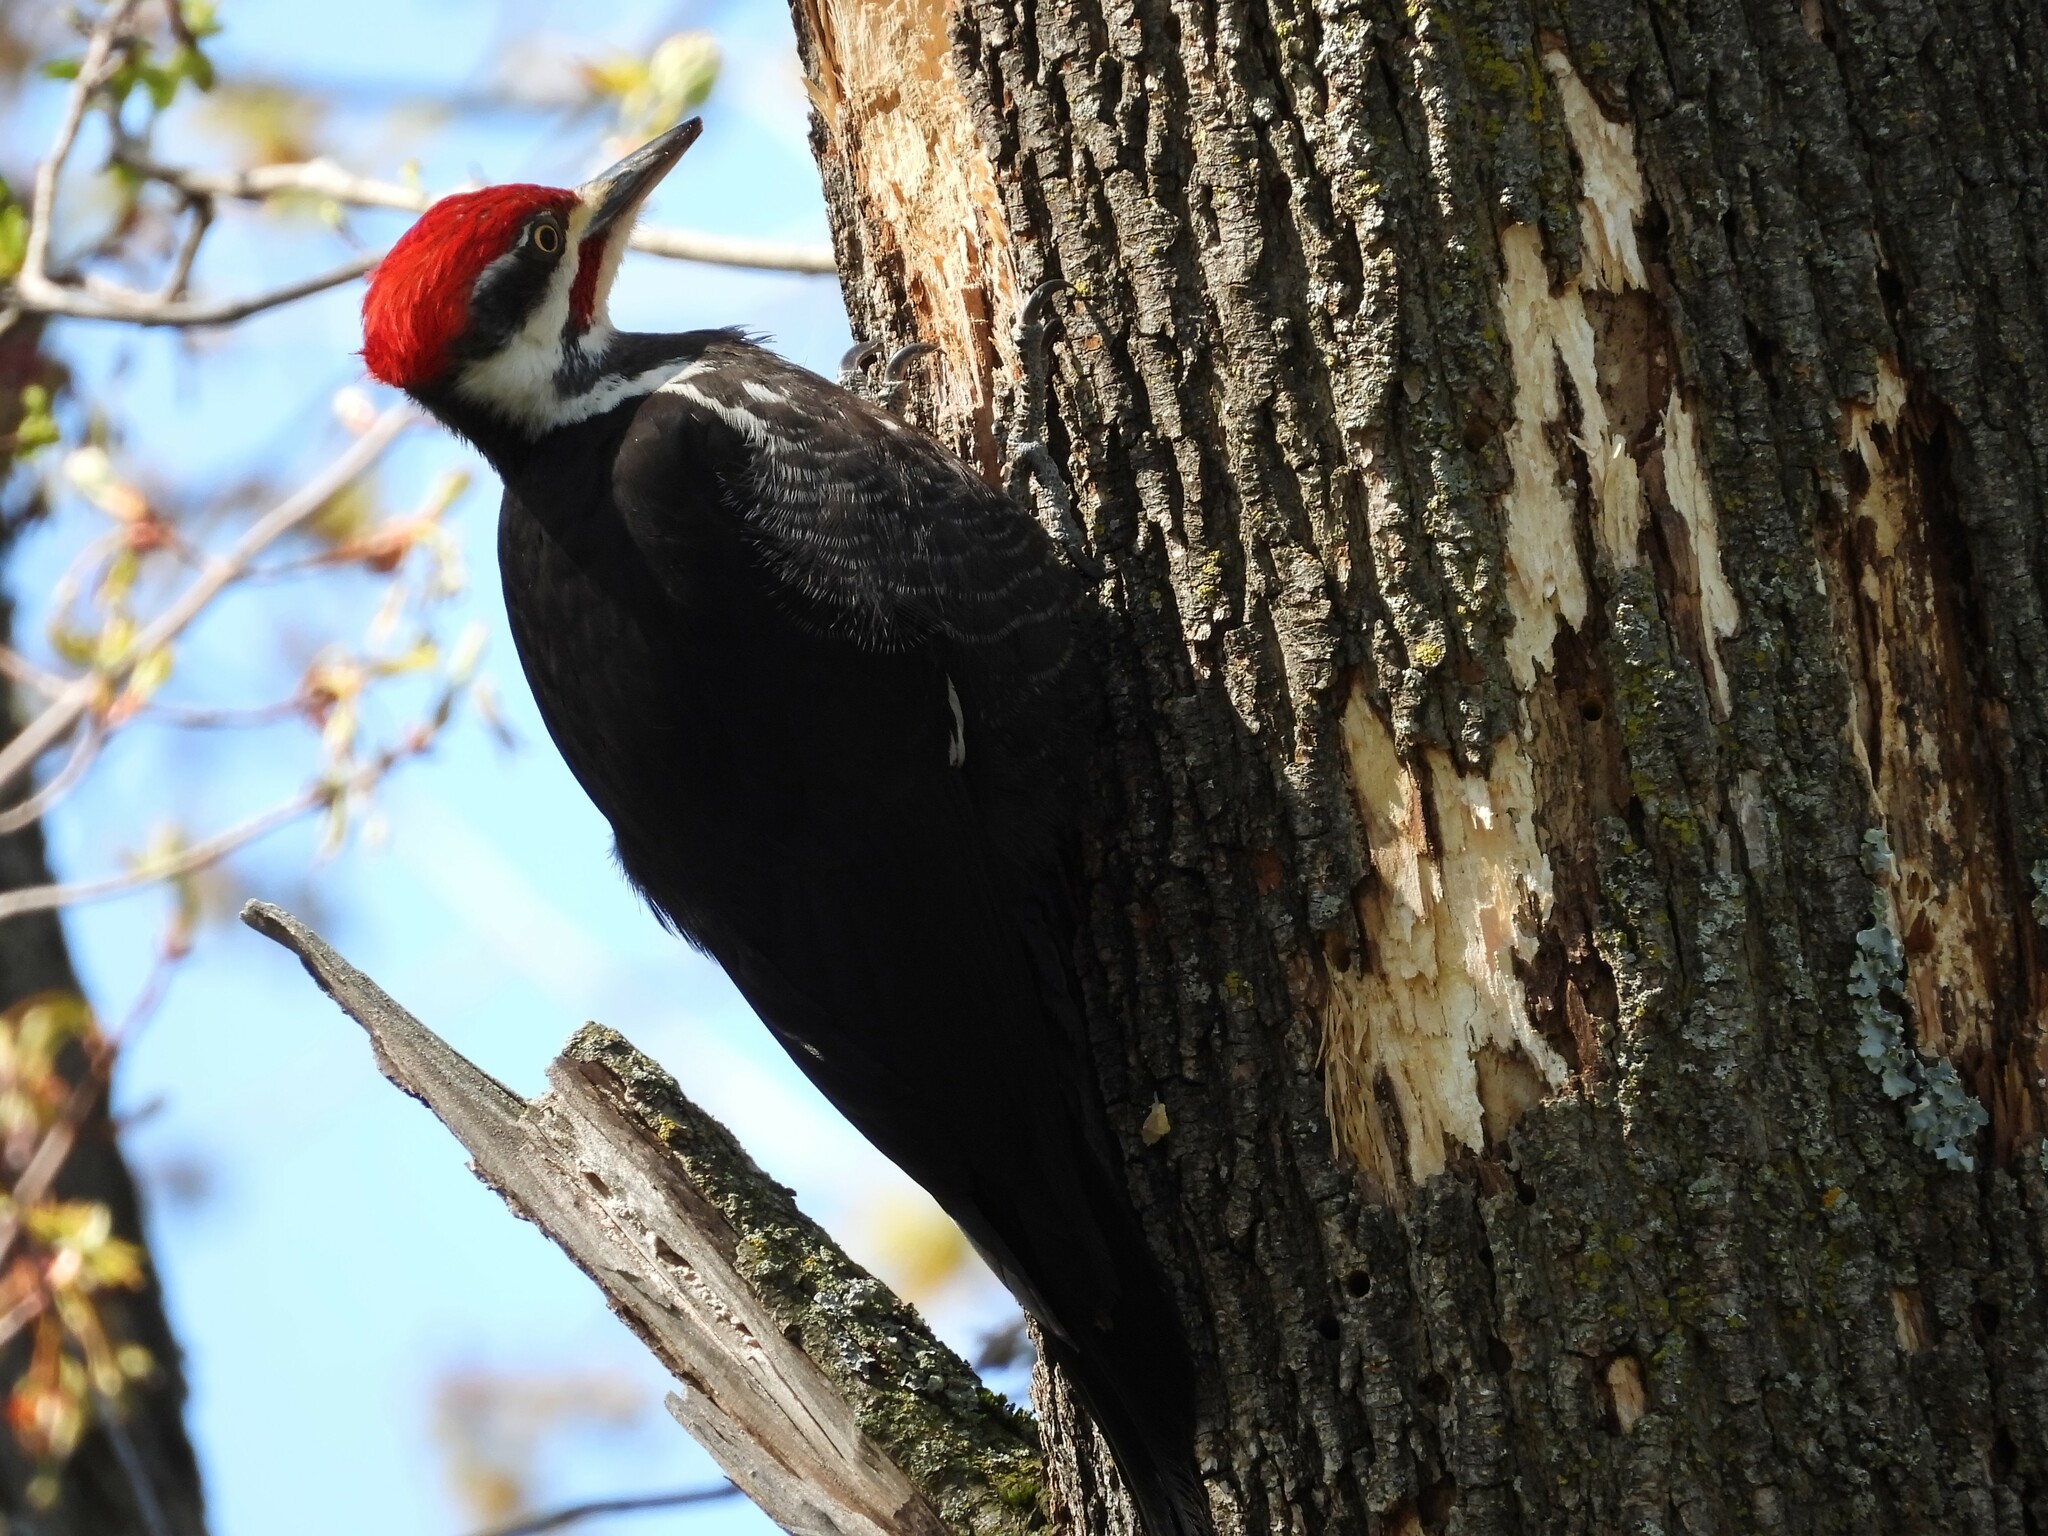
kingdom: Animalia
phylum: Chordata
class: Aves
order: Piciformes
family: Picidae
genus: Dryocopus
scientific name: Dryocopus pileatus
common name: Pileated woodpecker
